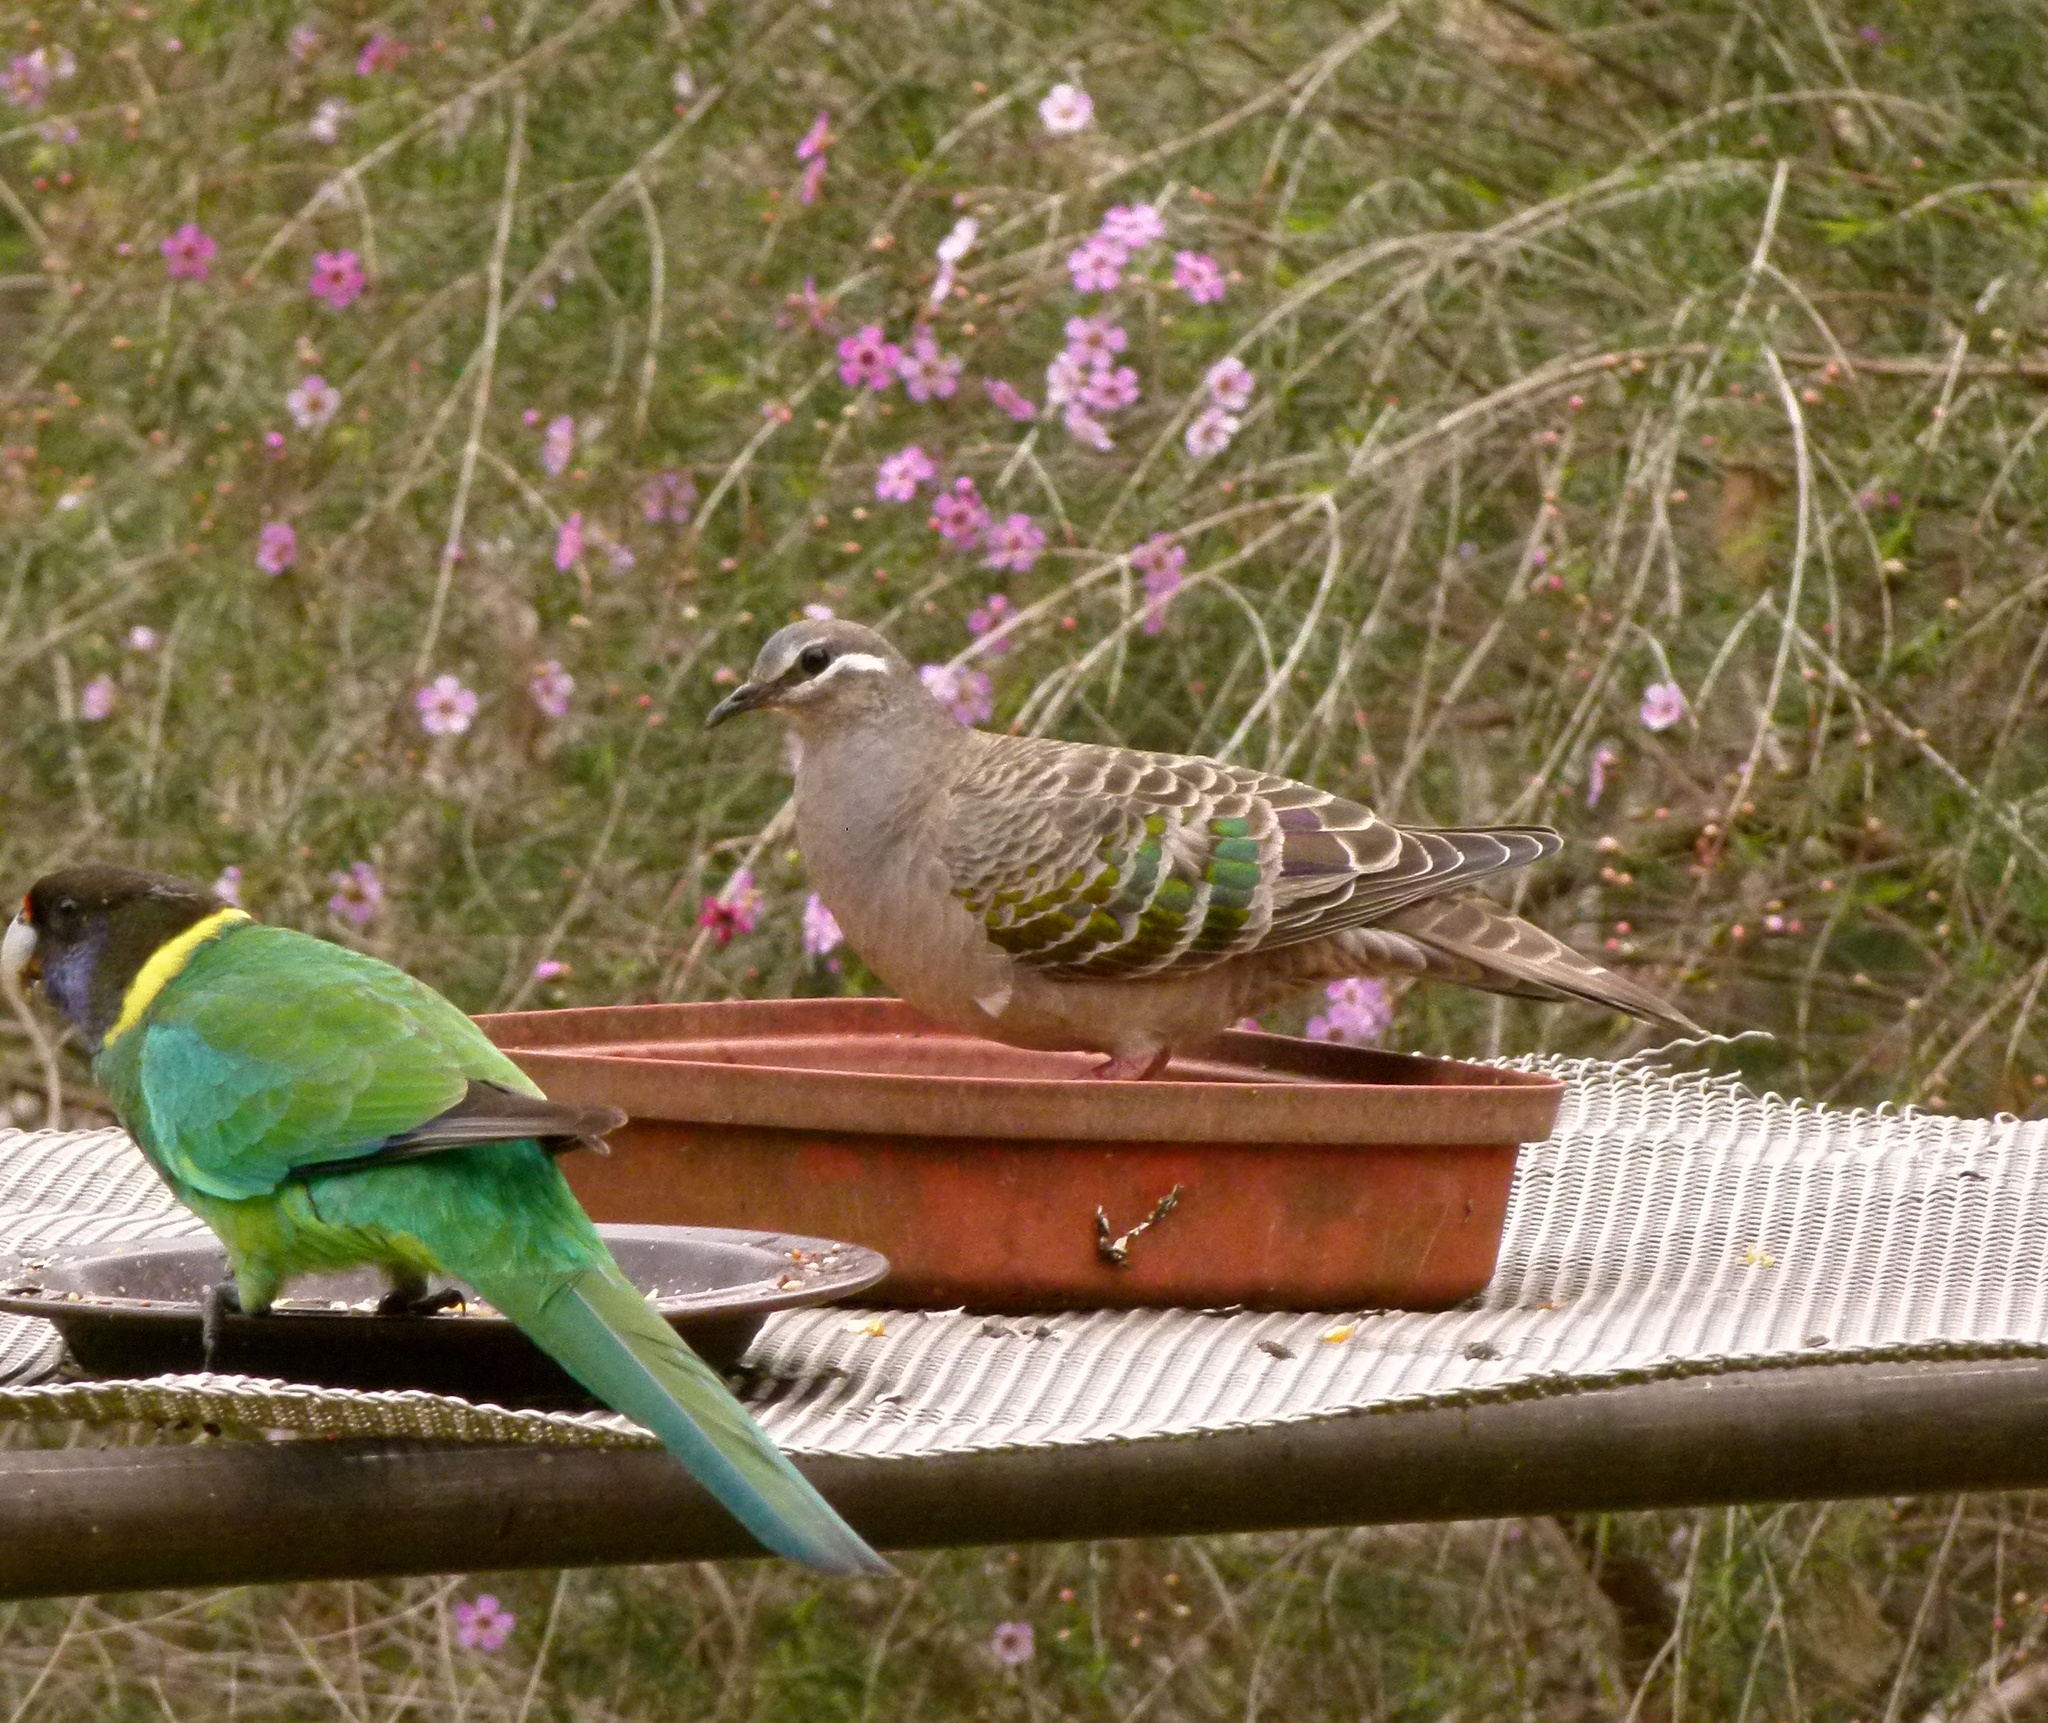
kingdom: Animalia
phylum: Chordata
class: Aves
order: Columbiformes
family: Columbidae
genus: Phaps
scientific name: Phaps chalcoptera
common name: Common bronzewing
